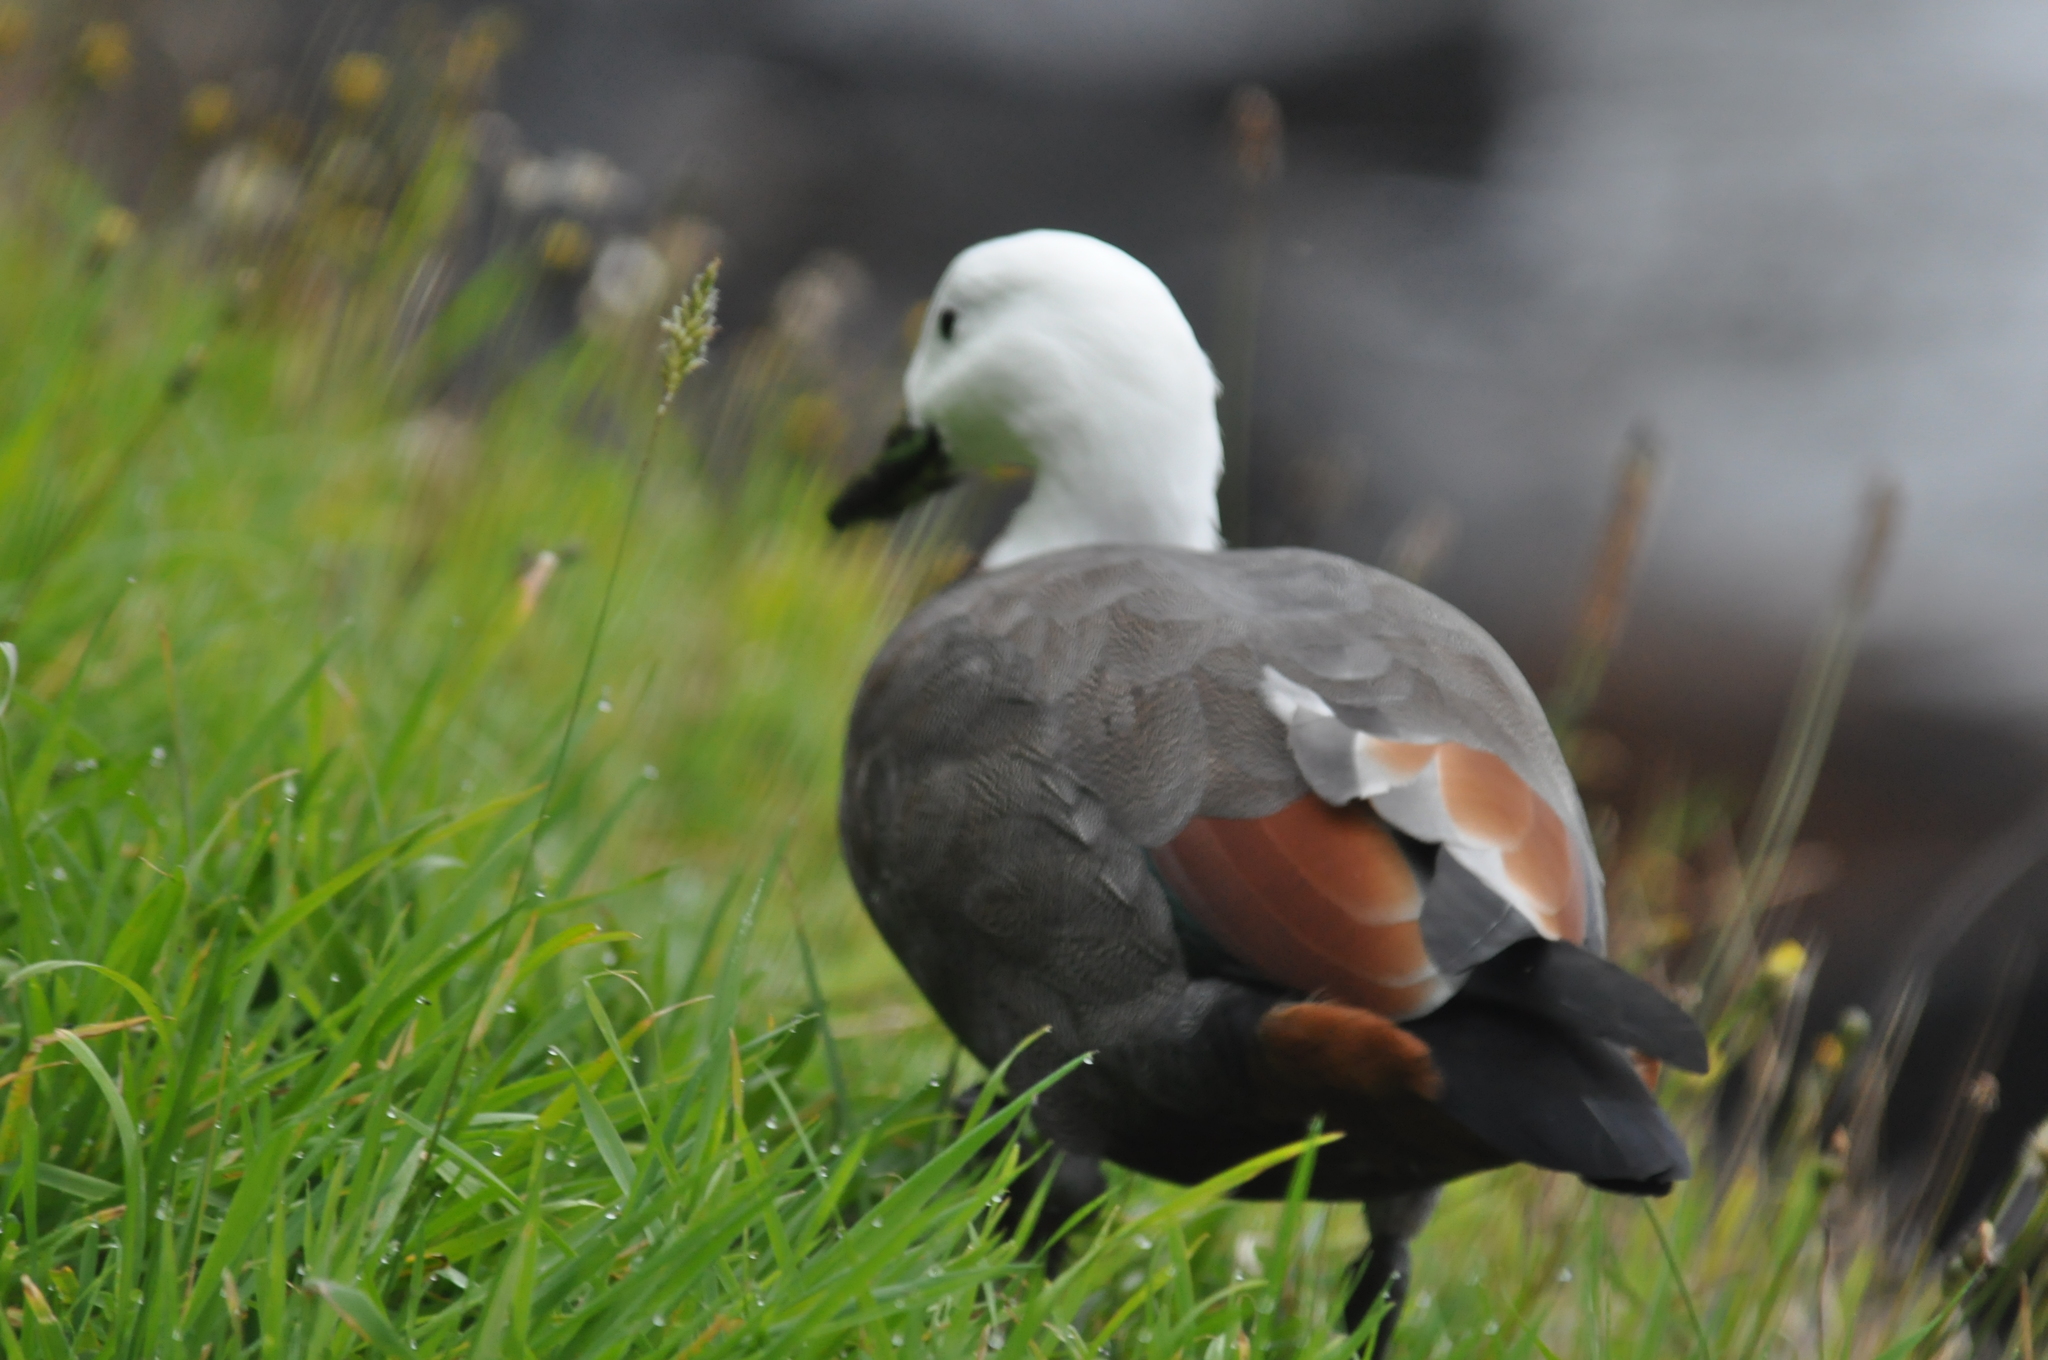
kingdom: Animalia
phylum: Chordata
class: Aves
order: Anseriformes
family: Anatidae
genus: Tadorna
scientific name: Tadorna variegata
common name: Paradise shelduck
